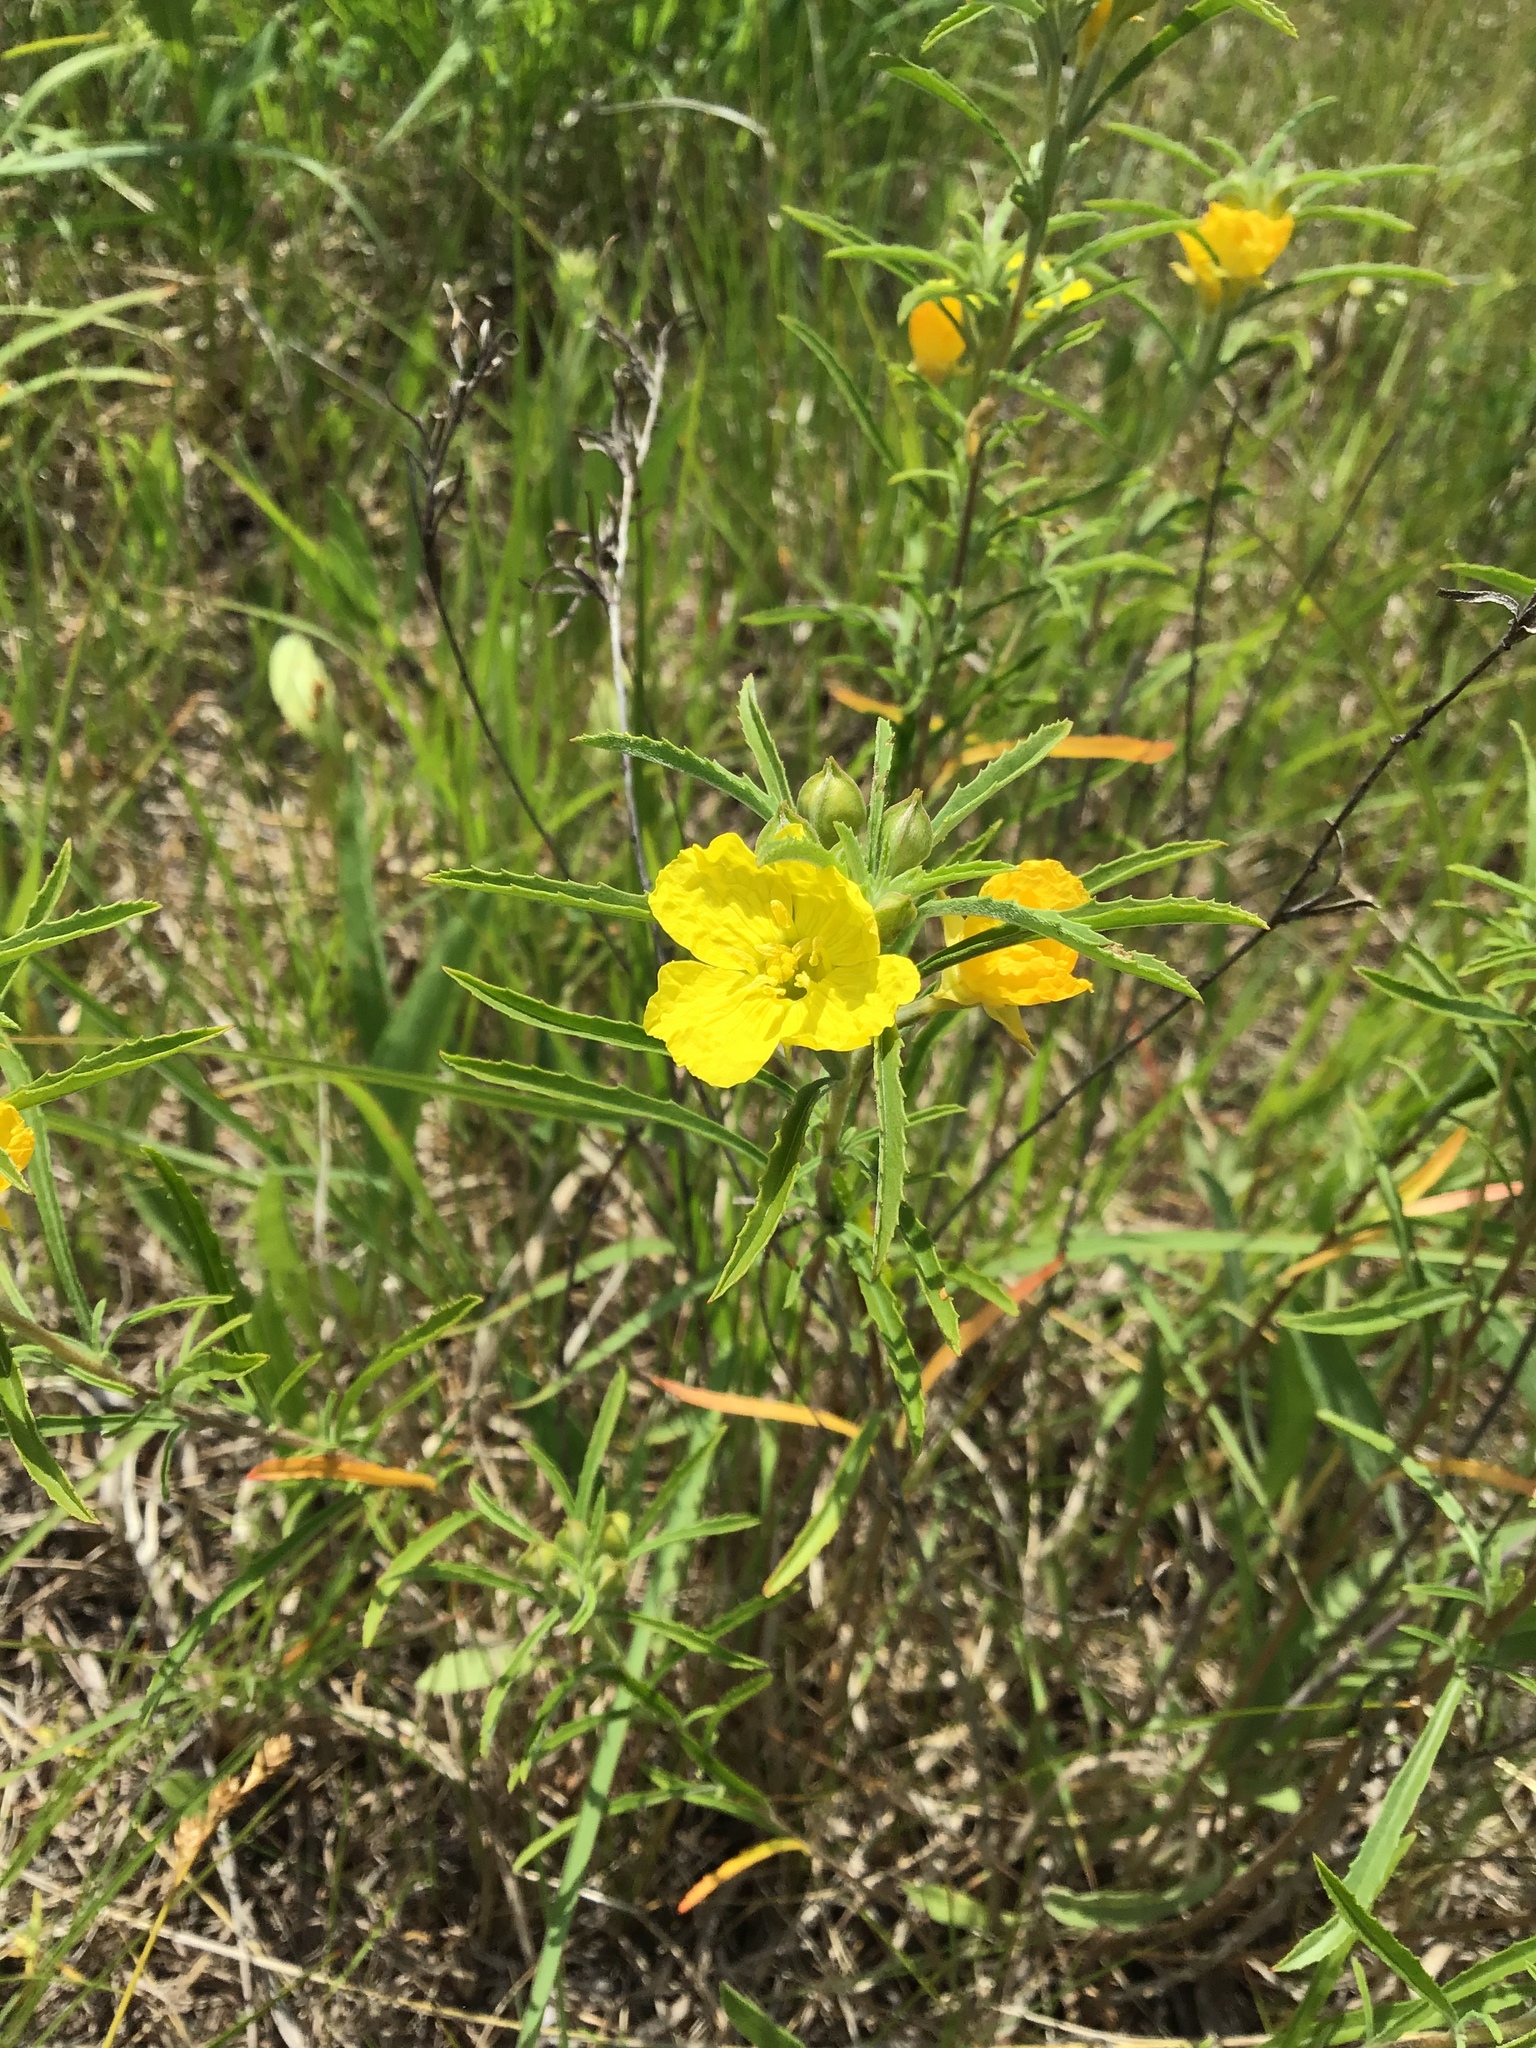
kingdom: Plantae
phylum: Tracheophyta
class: Magnoliopsida
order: Myrtales
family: Onagraceae
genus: Oenothera
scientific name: Oenothera serrulata
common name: Half-shrub calylophus
